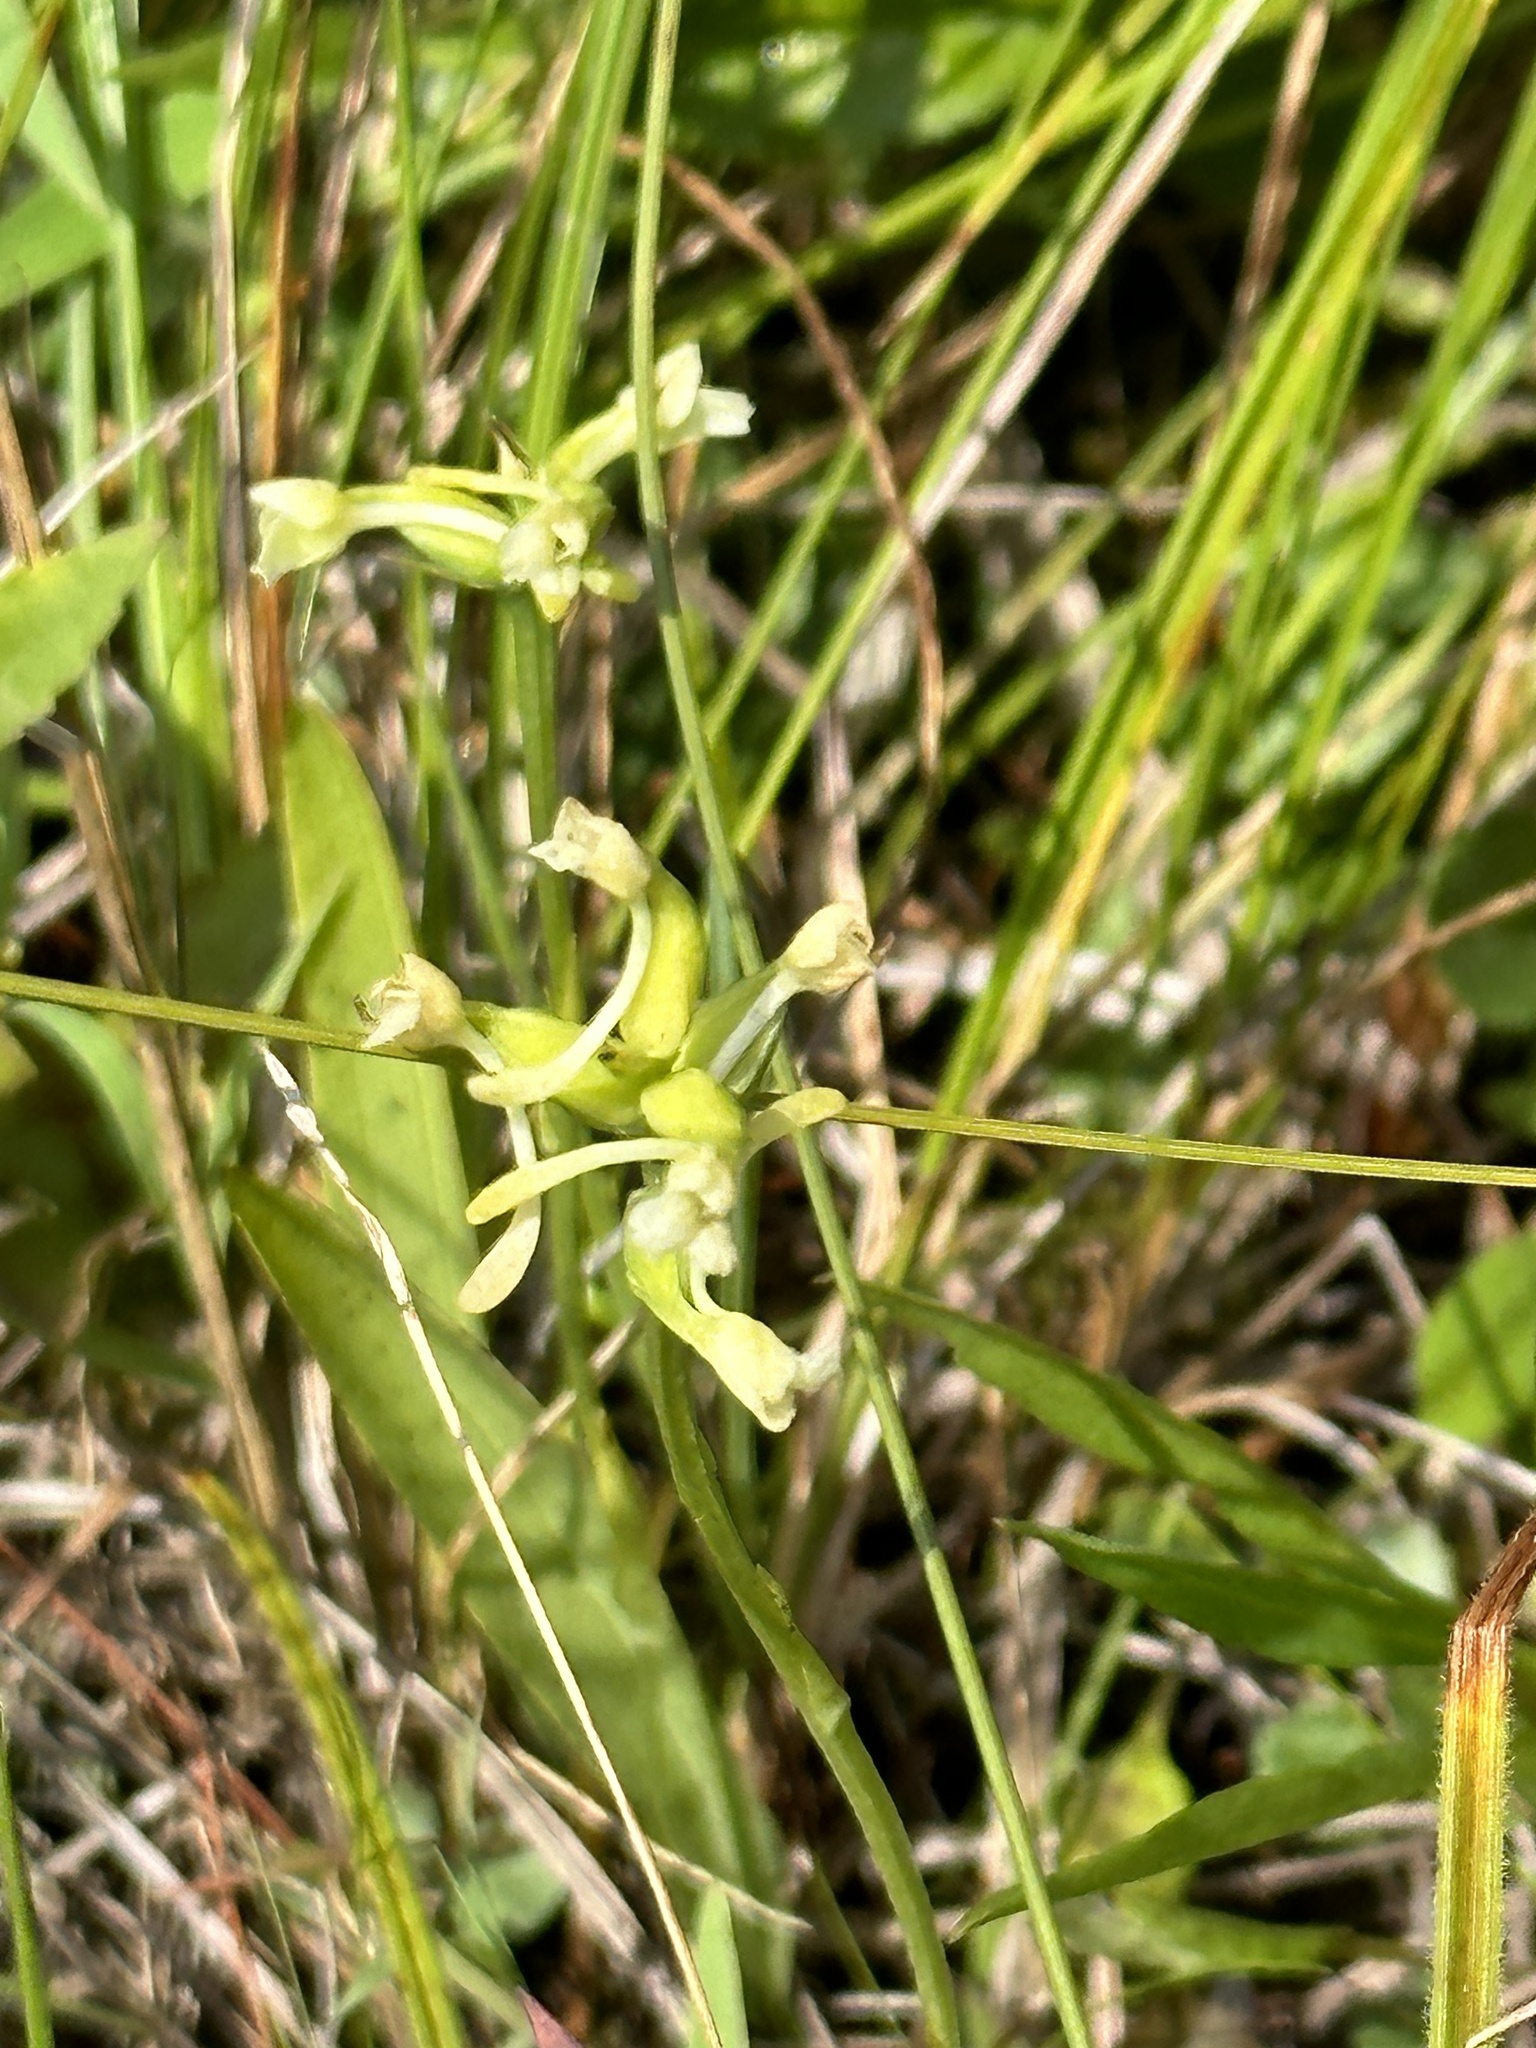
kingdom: Plantae
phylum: Tracheophyta
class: Liliopsida
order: Asparagales
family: Orchidaceae
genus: Platanthera
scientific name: Platanthera clavellata
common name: Club-spur orchid
